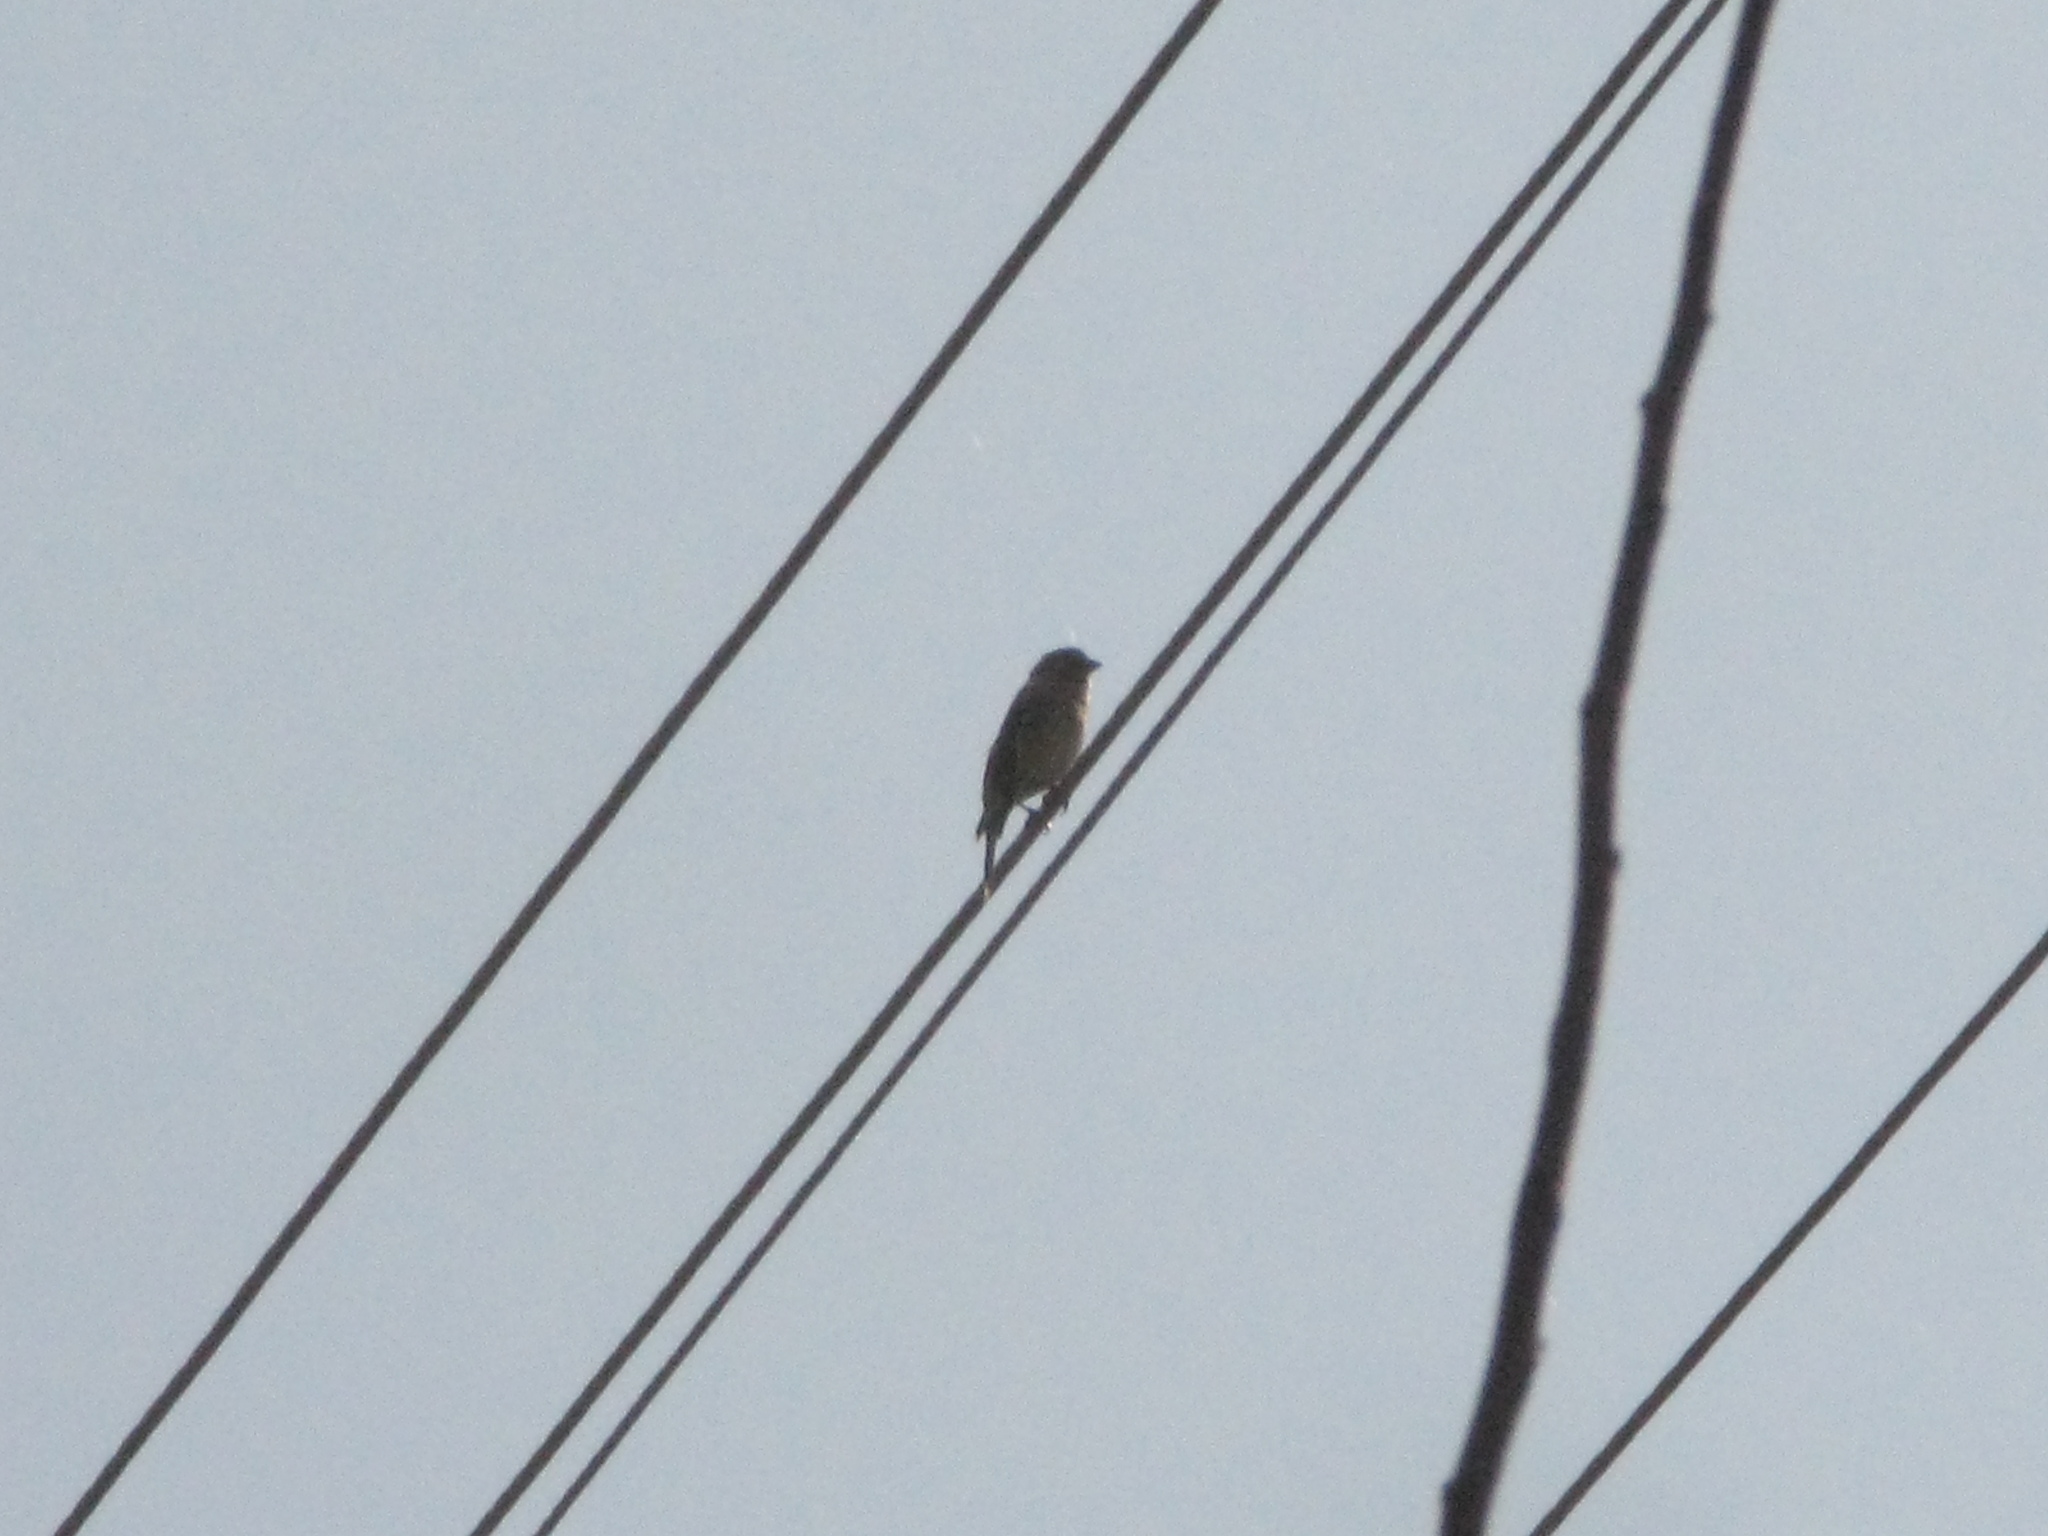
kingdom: Animalia
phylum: Chordata
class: Aves
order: Passeriformes
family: Fringillidae
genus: Linaria
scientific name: Linaria cannabina
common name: Common linnet
